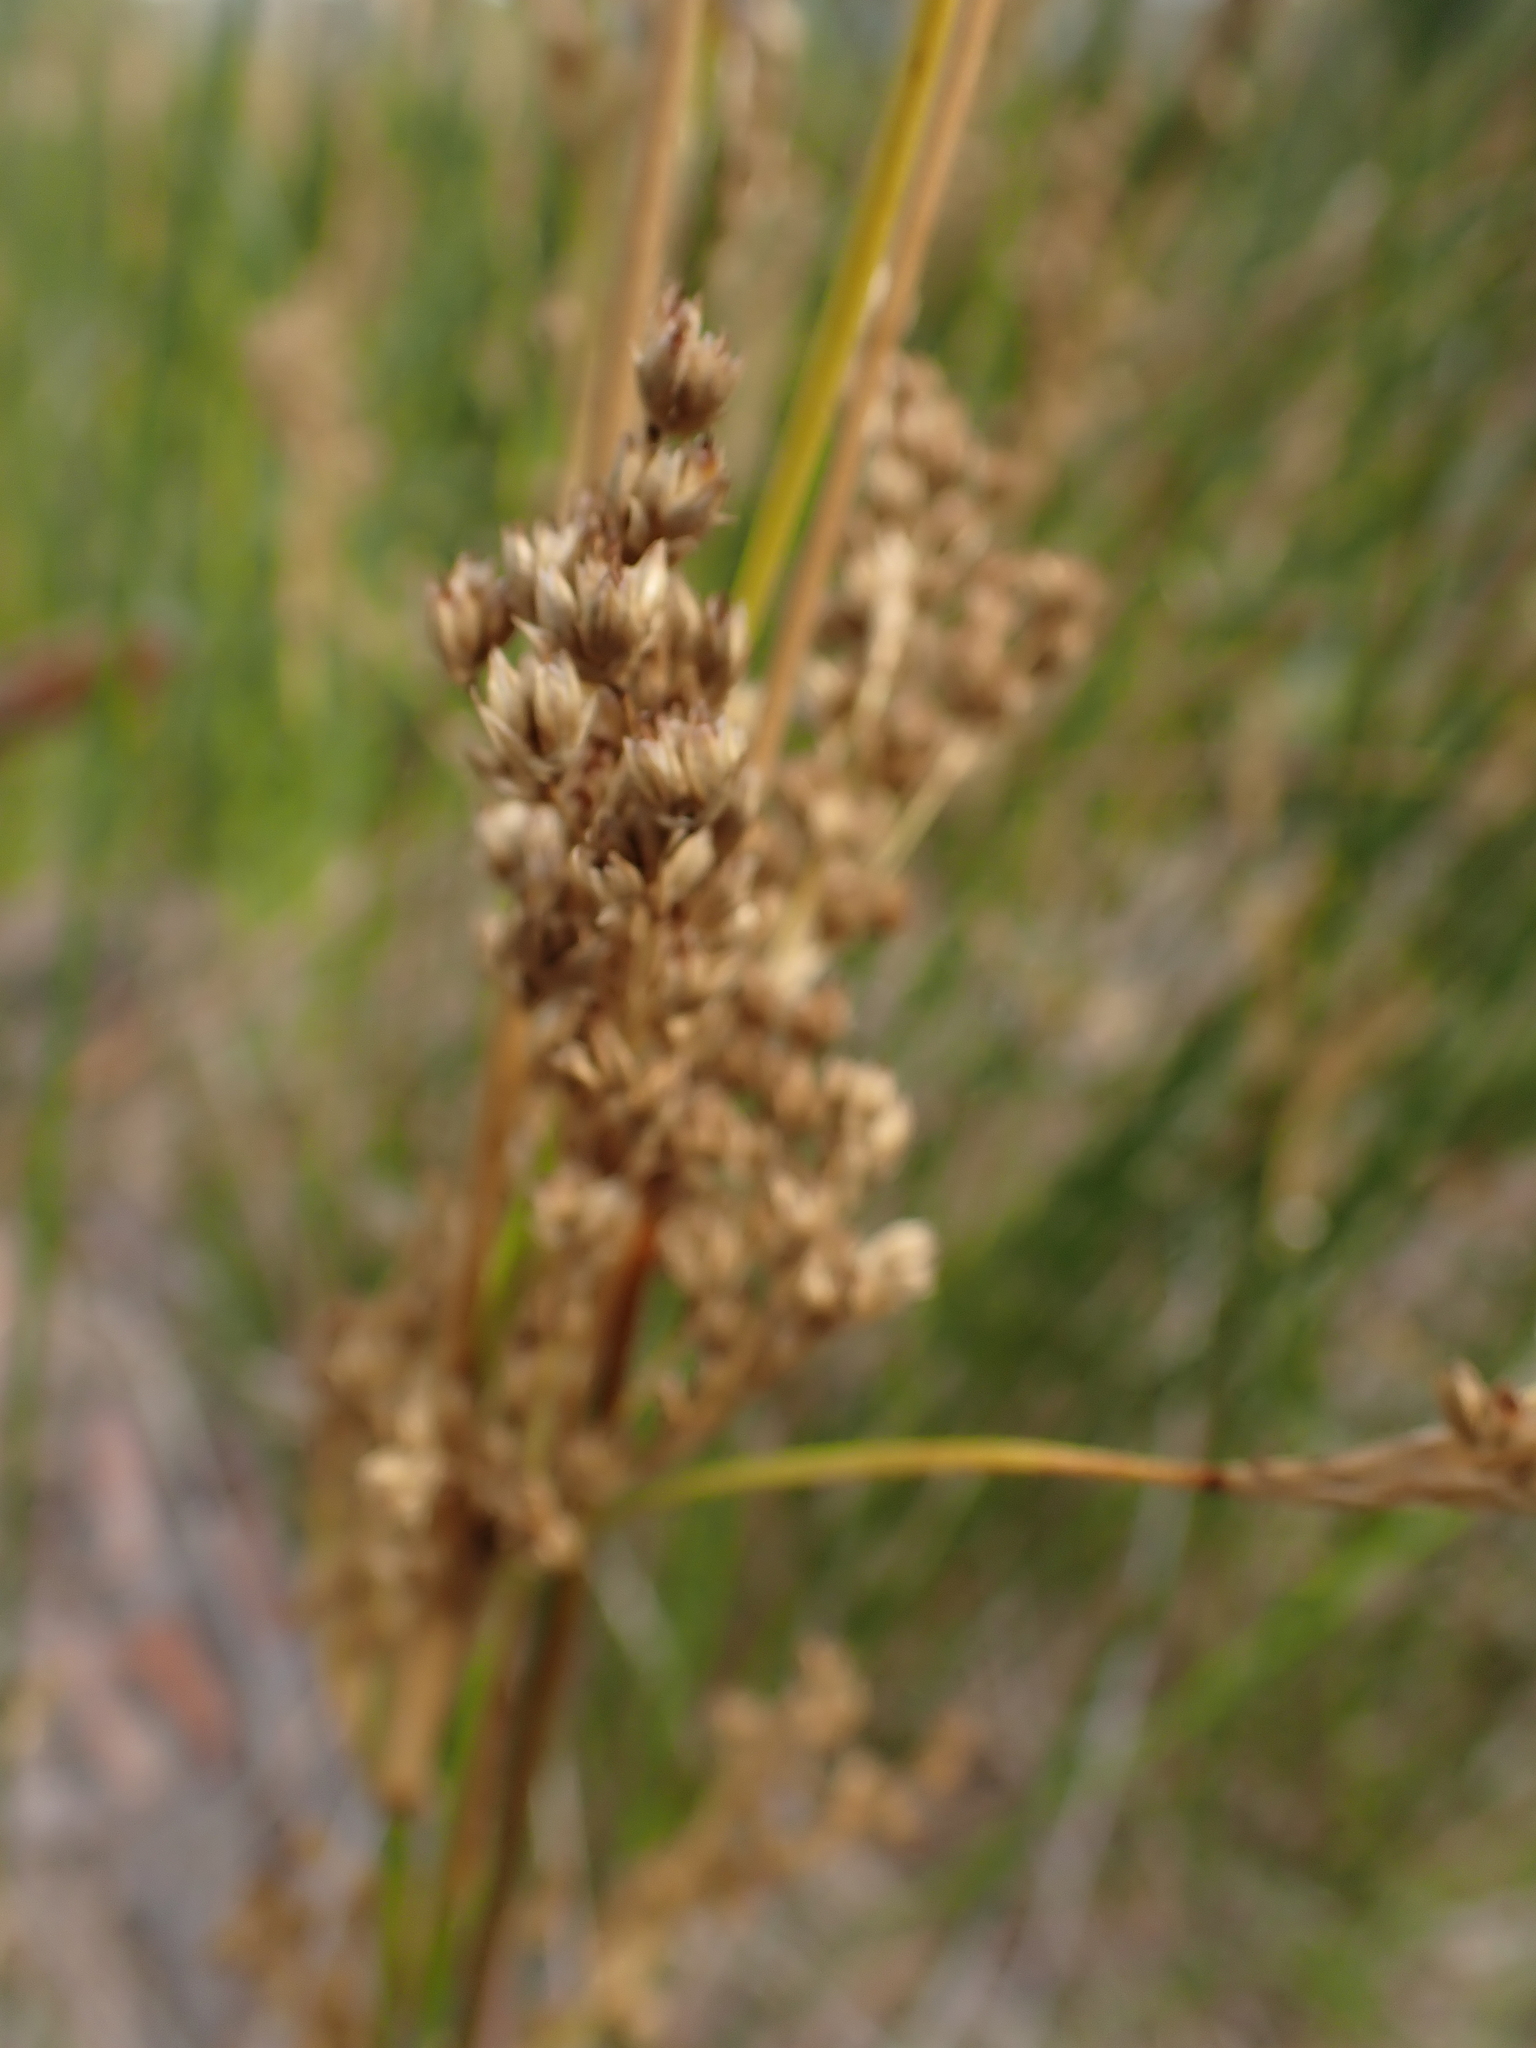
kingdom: Plantae
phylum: Tracheophyta
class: Liliopsida
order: Poales
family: Juncaceae
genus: Juncus
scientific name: Juncus maritimus
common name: Sea rush
